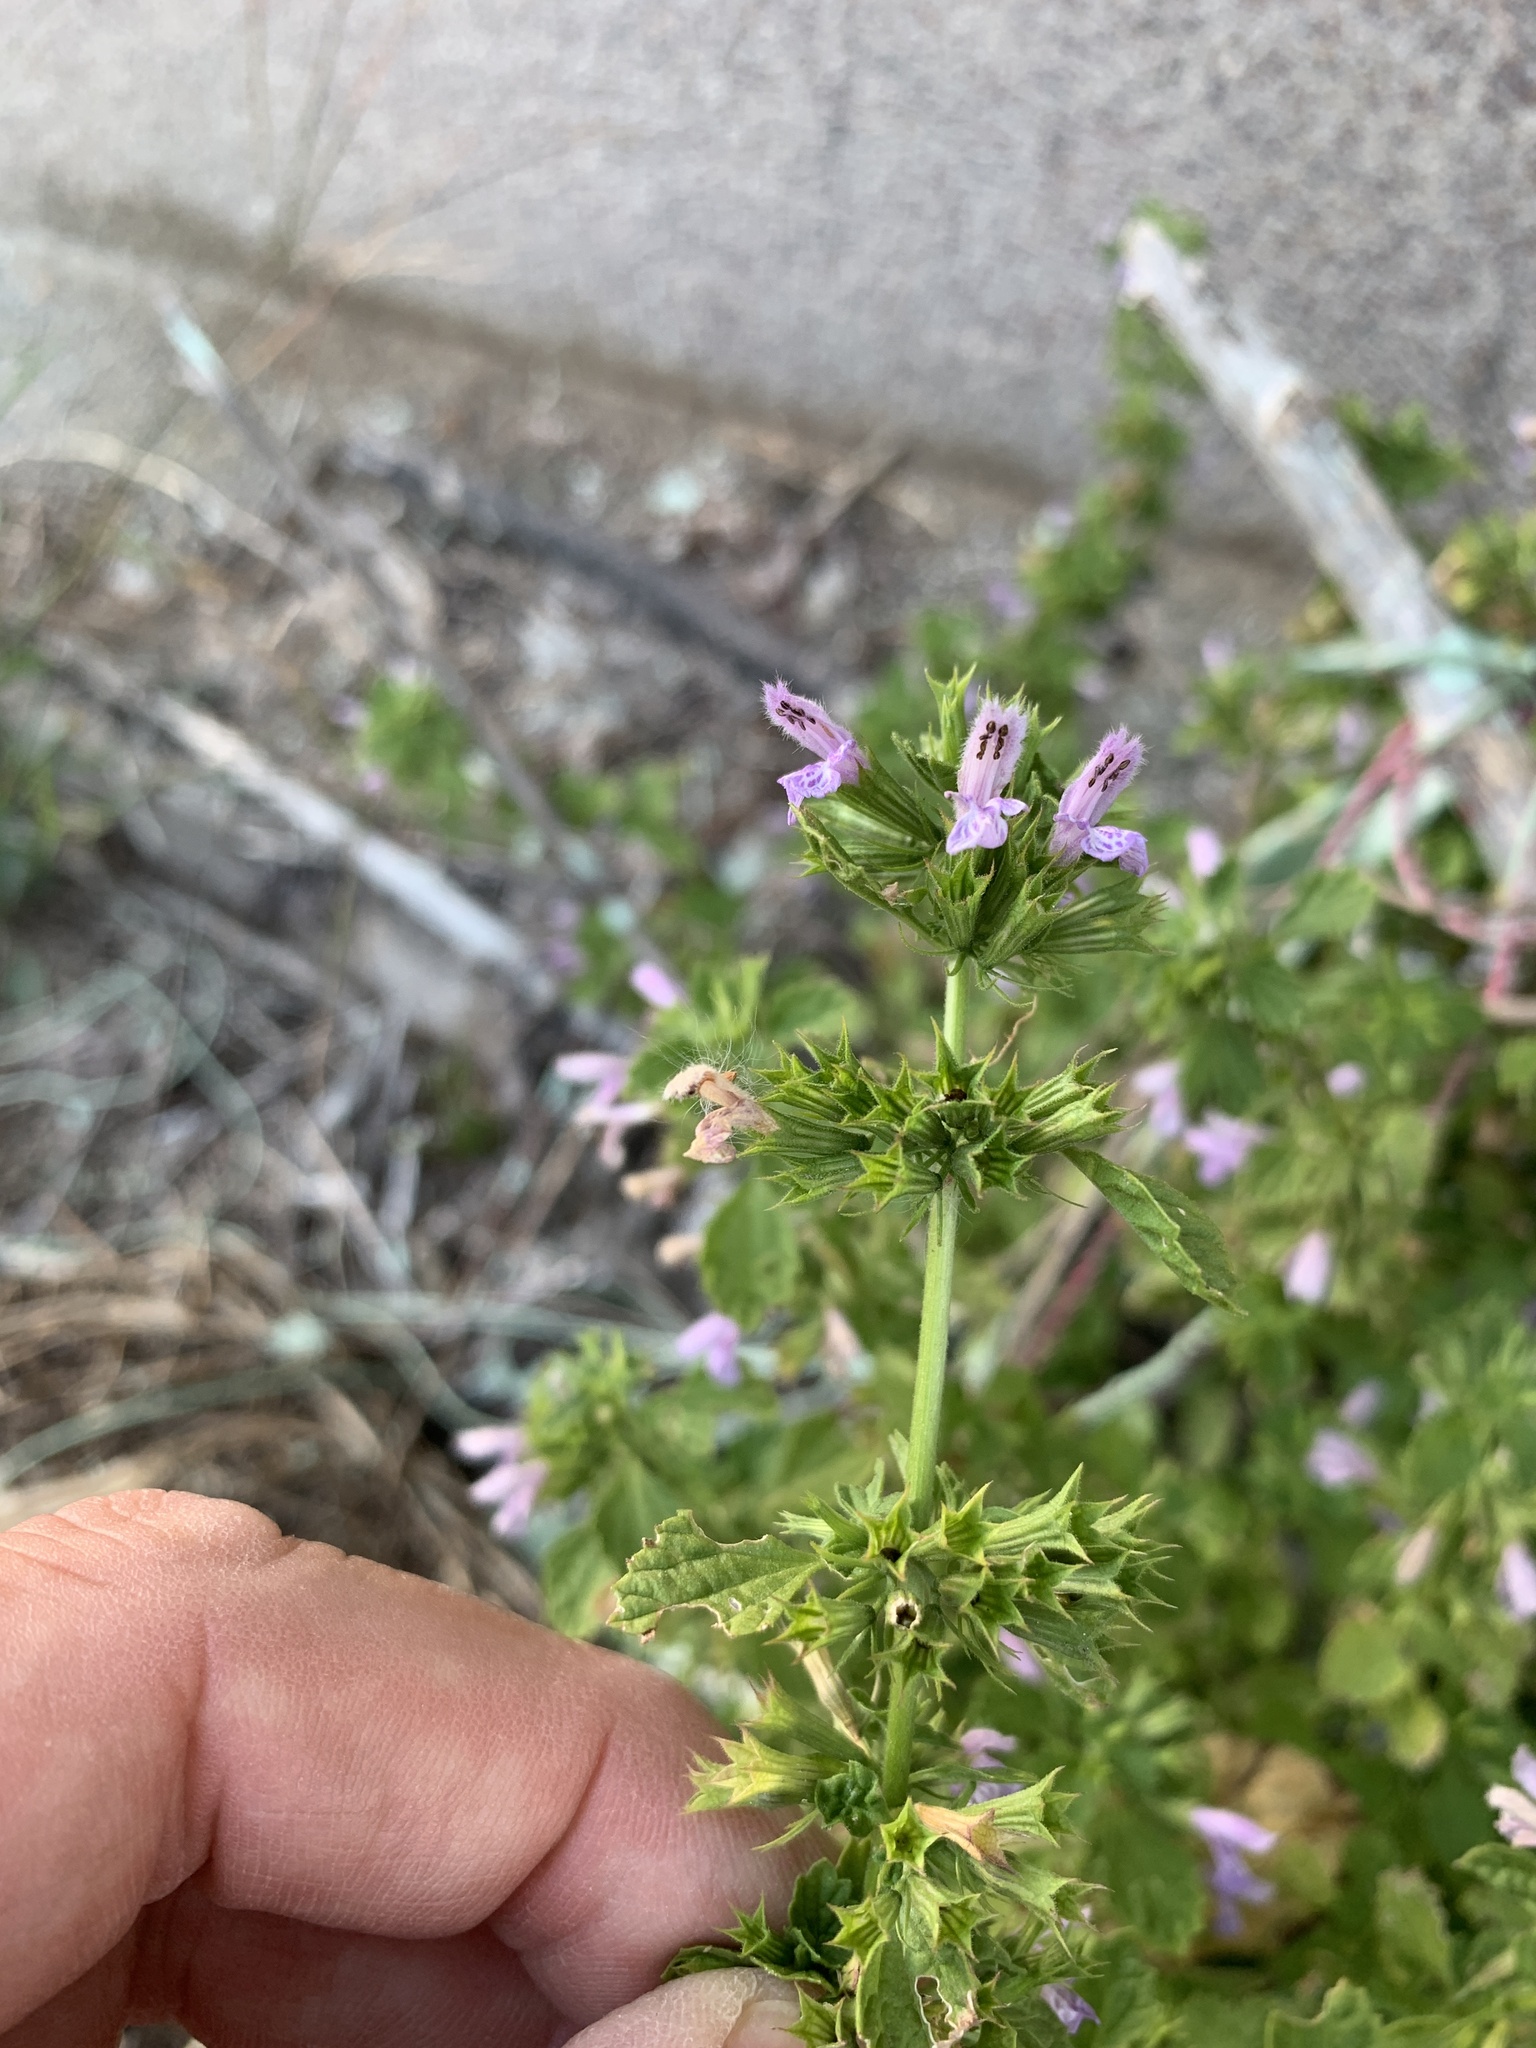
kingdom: Plantae
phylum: Tracheophyta
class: Magnoliopsida
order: Lamiales
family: Lamiaceae
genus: Ballota
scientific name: Ballota nigra
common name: Black horehound
